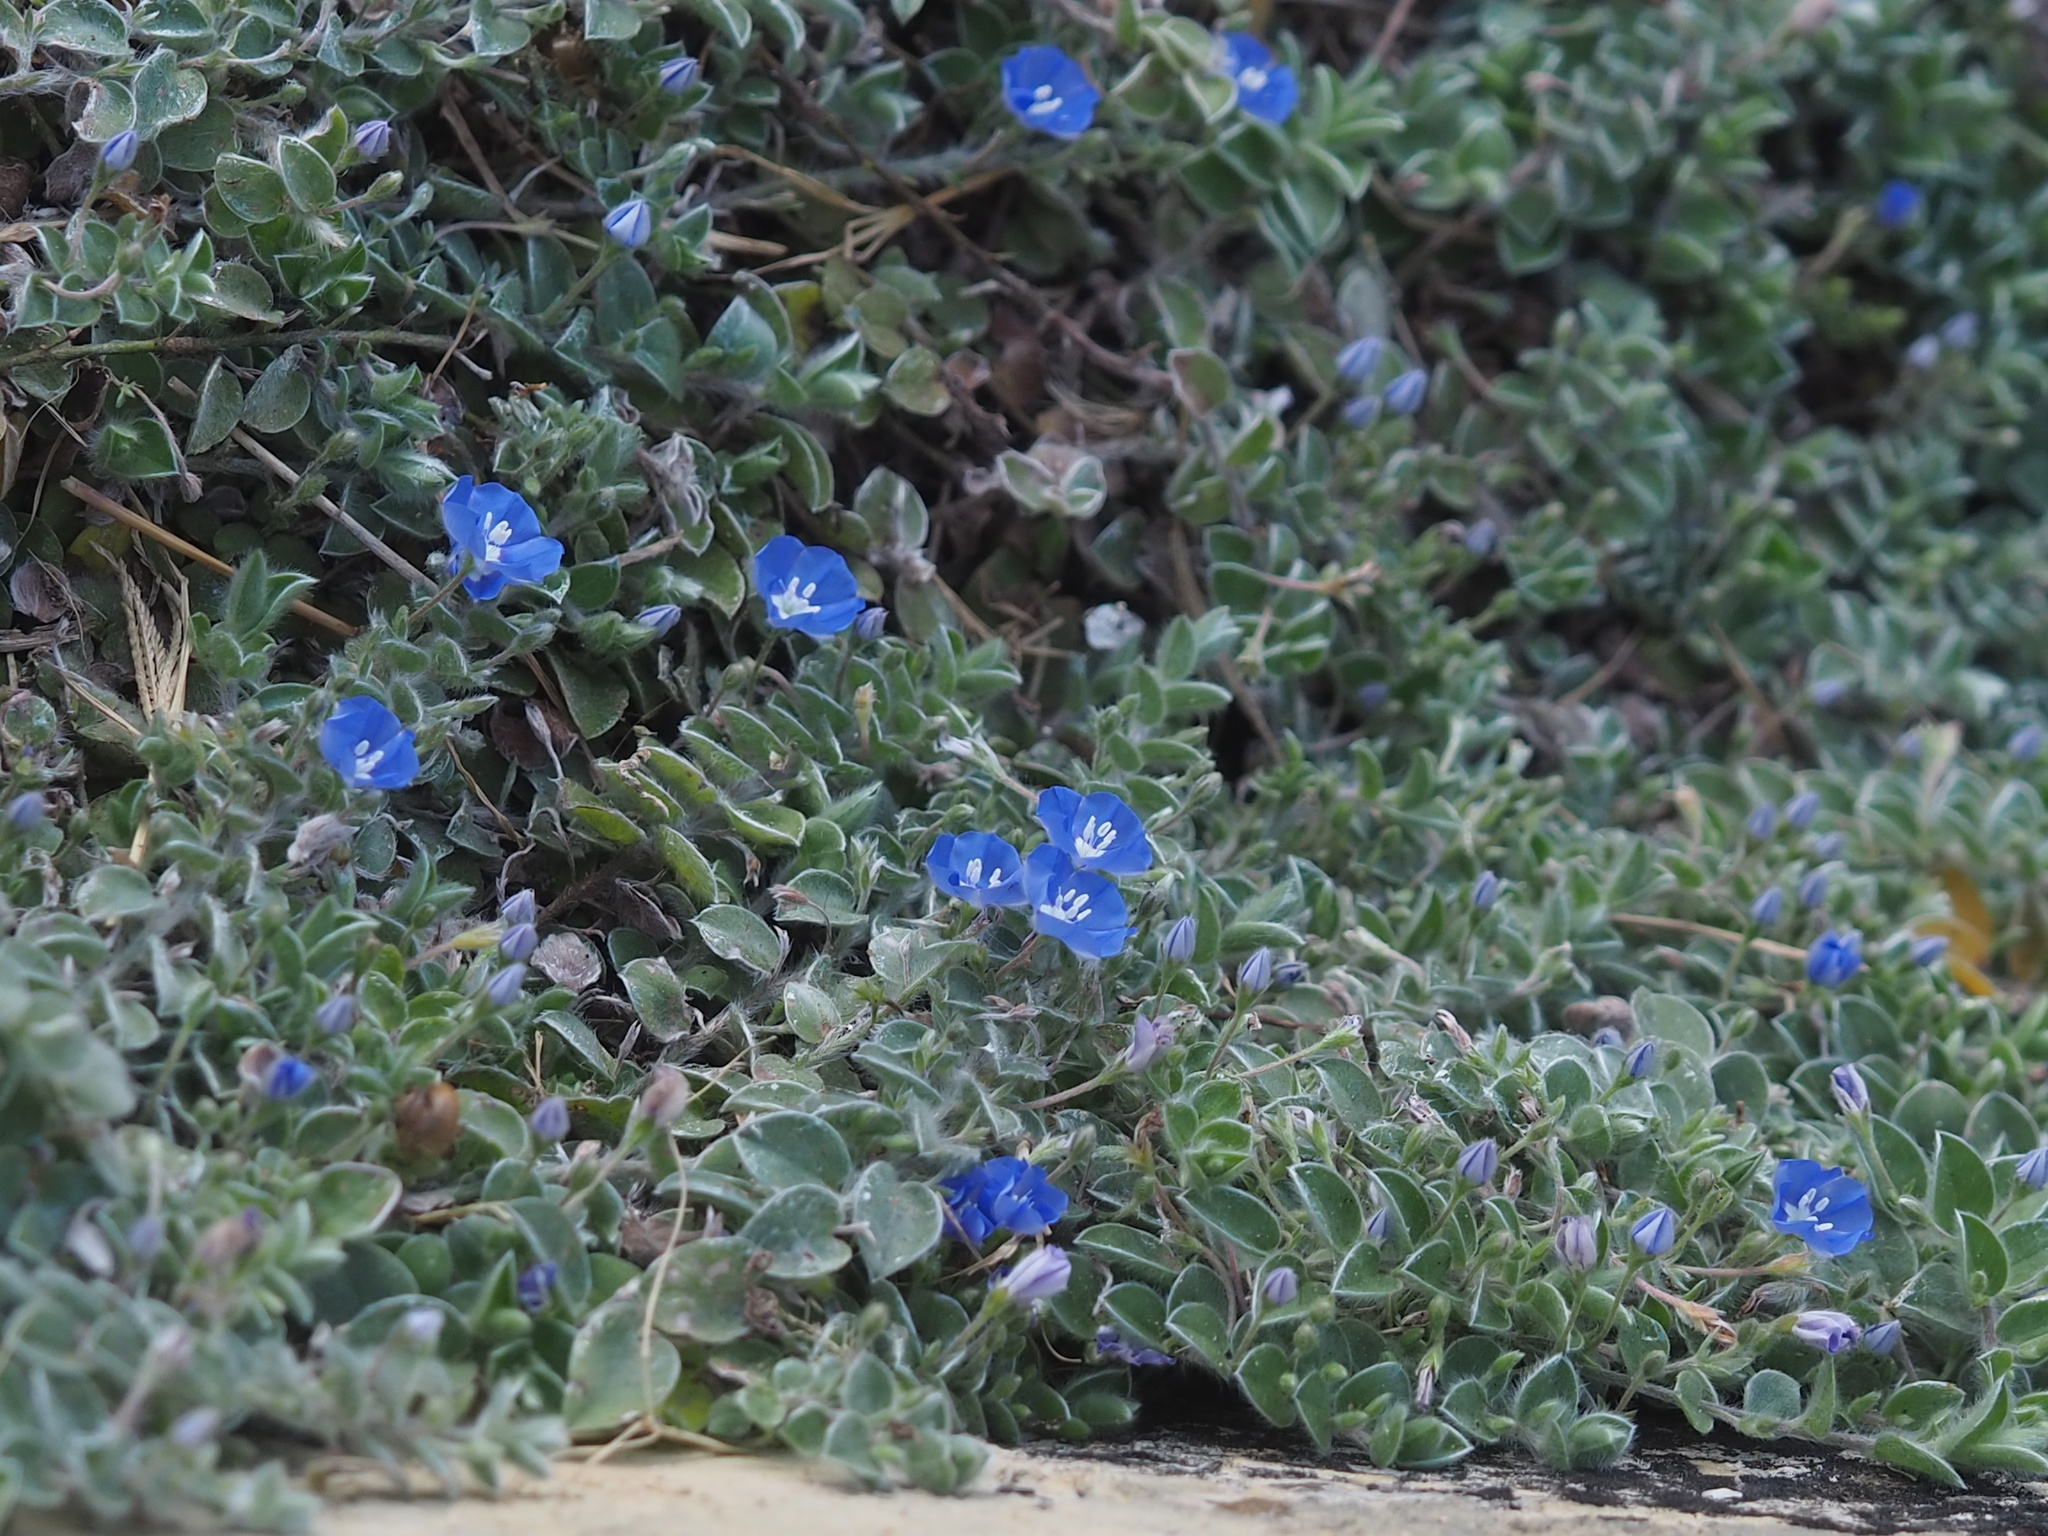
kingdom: Plantae
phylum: Tracheophyta
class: Magnoliopsida
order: Solanales
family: Convolvulaceae
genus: Evolvulus
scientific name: Evolvulus alsinoides
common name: Slender dwarf morning-glory
